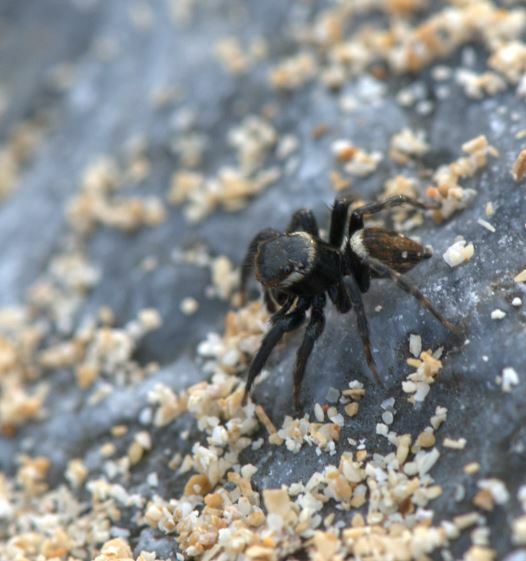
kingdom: Animalia
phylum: Arthropoda
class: Arachnida
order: Araneae
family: Salticidae
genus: Hasarius
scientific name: Hasarius adansoni
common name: Jumping spider
